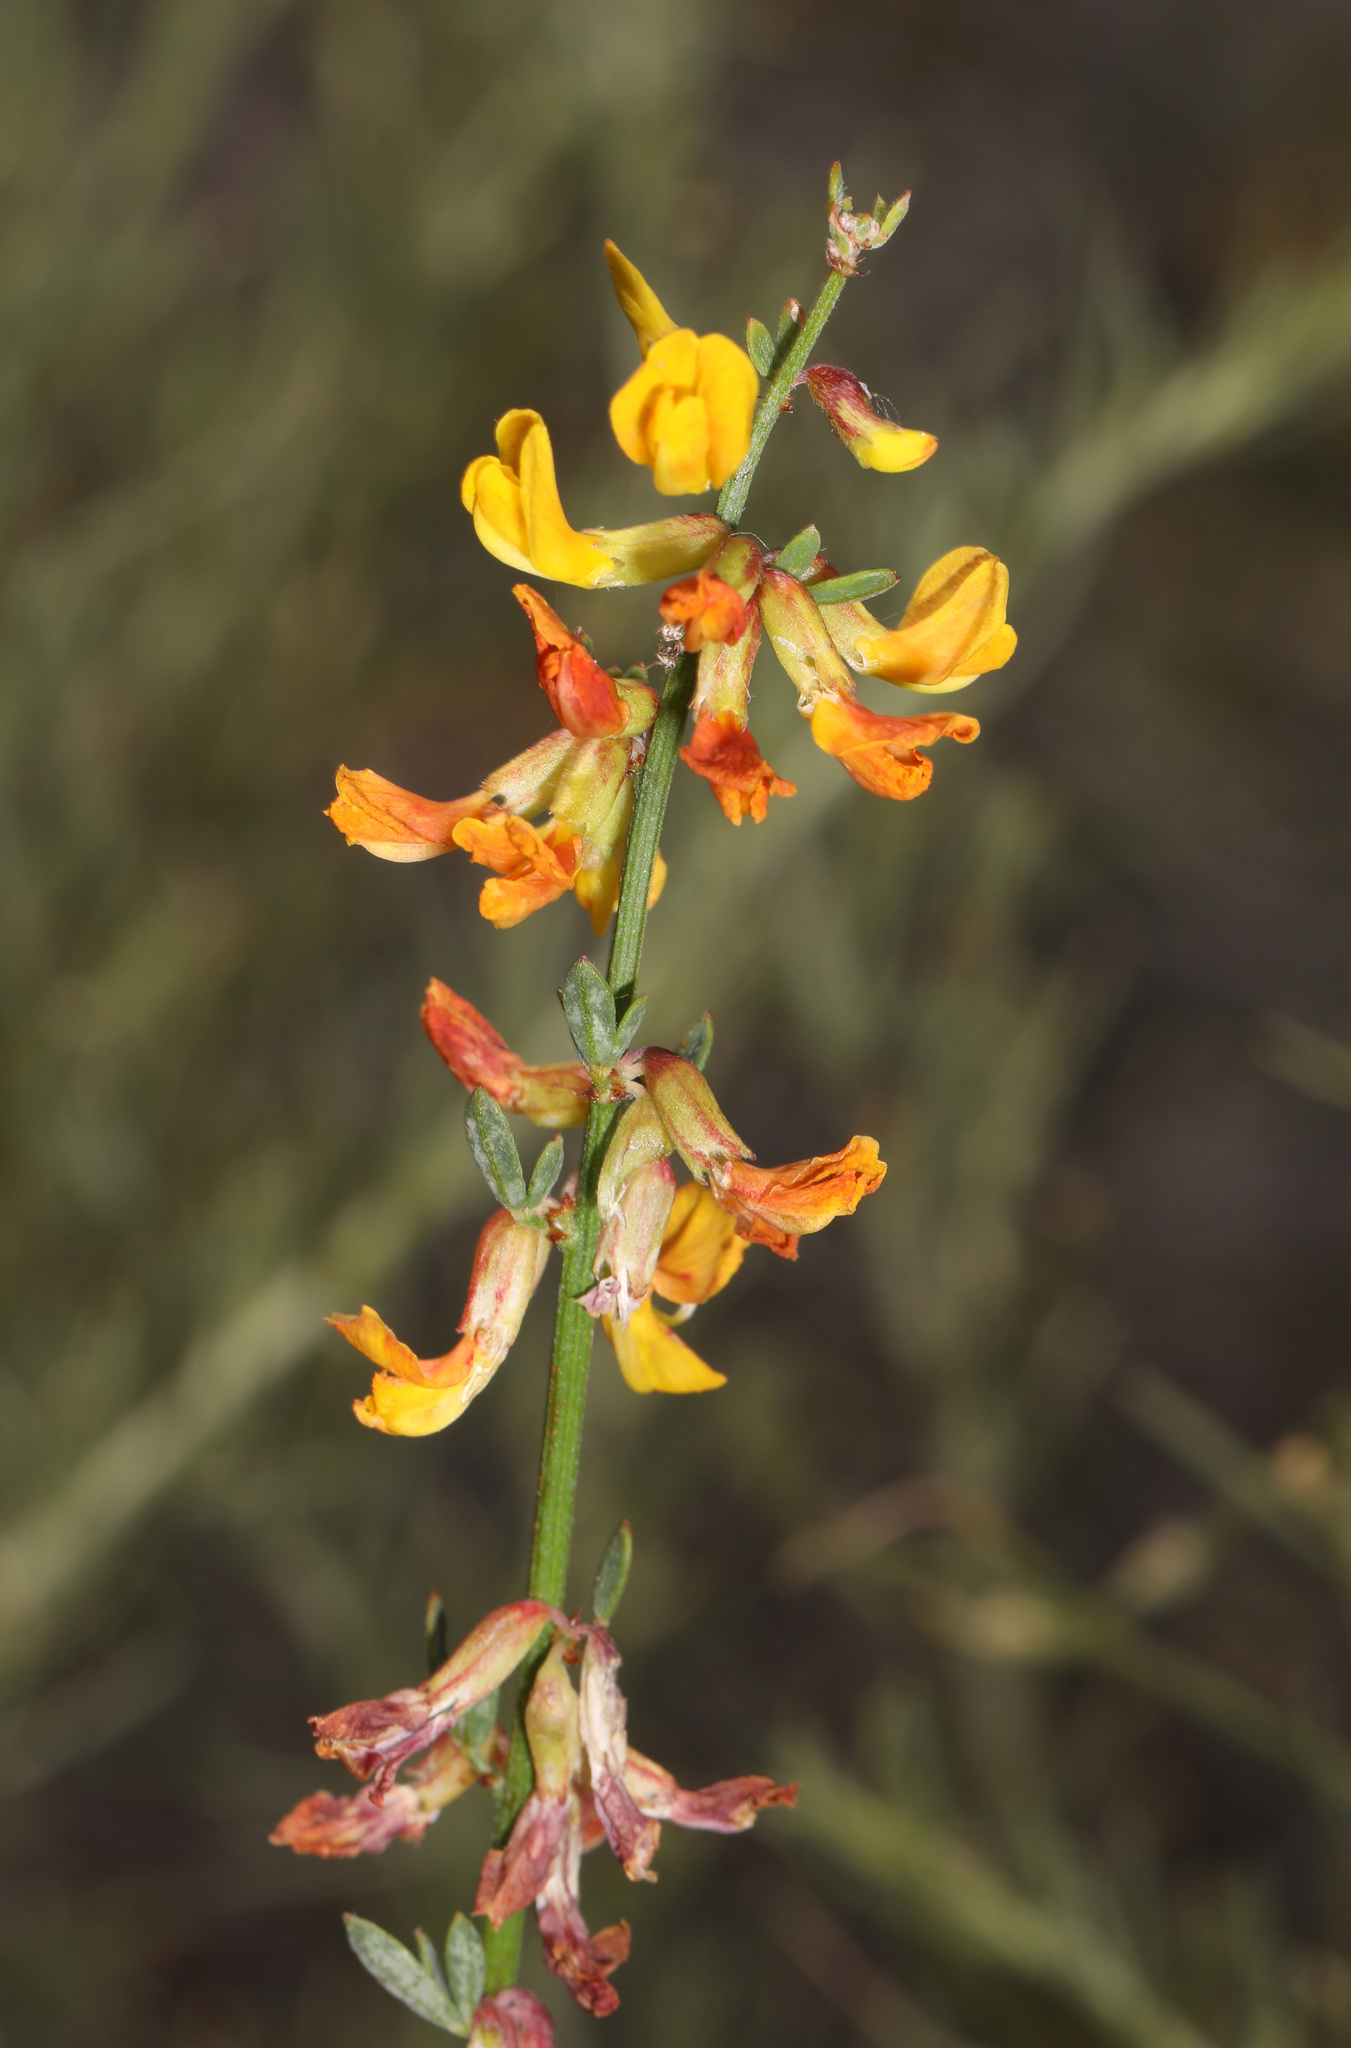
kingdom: Plantae
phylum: Tracheophyta
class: Magnoliopsida
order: Fabales
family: Fabaceae
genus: Acmispon
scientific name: Acmispon glaber
